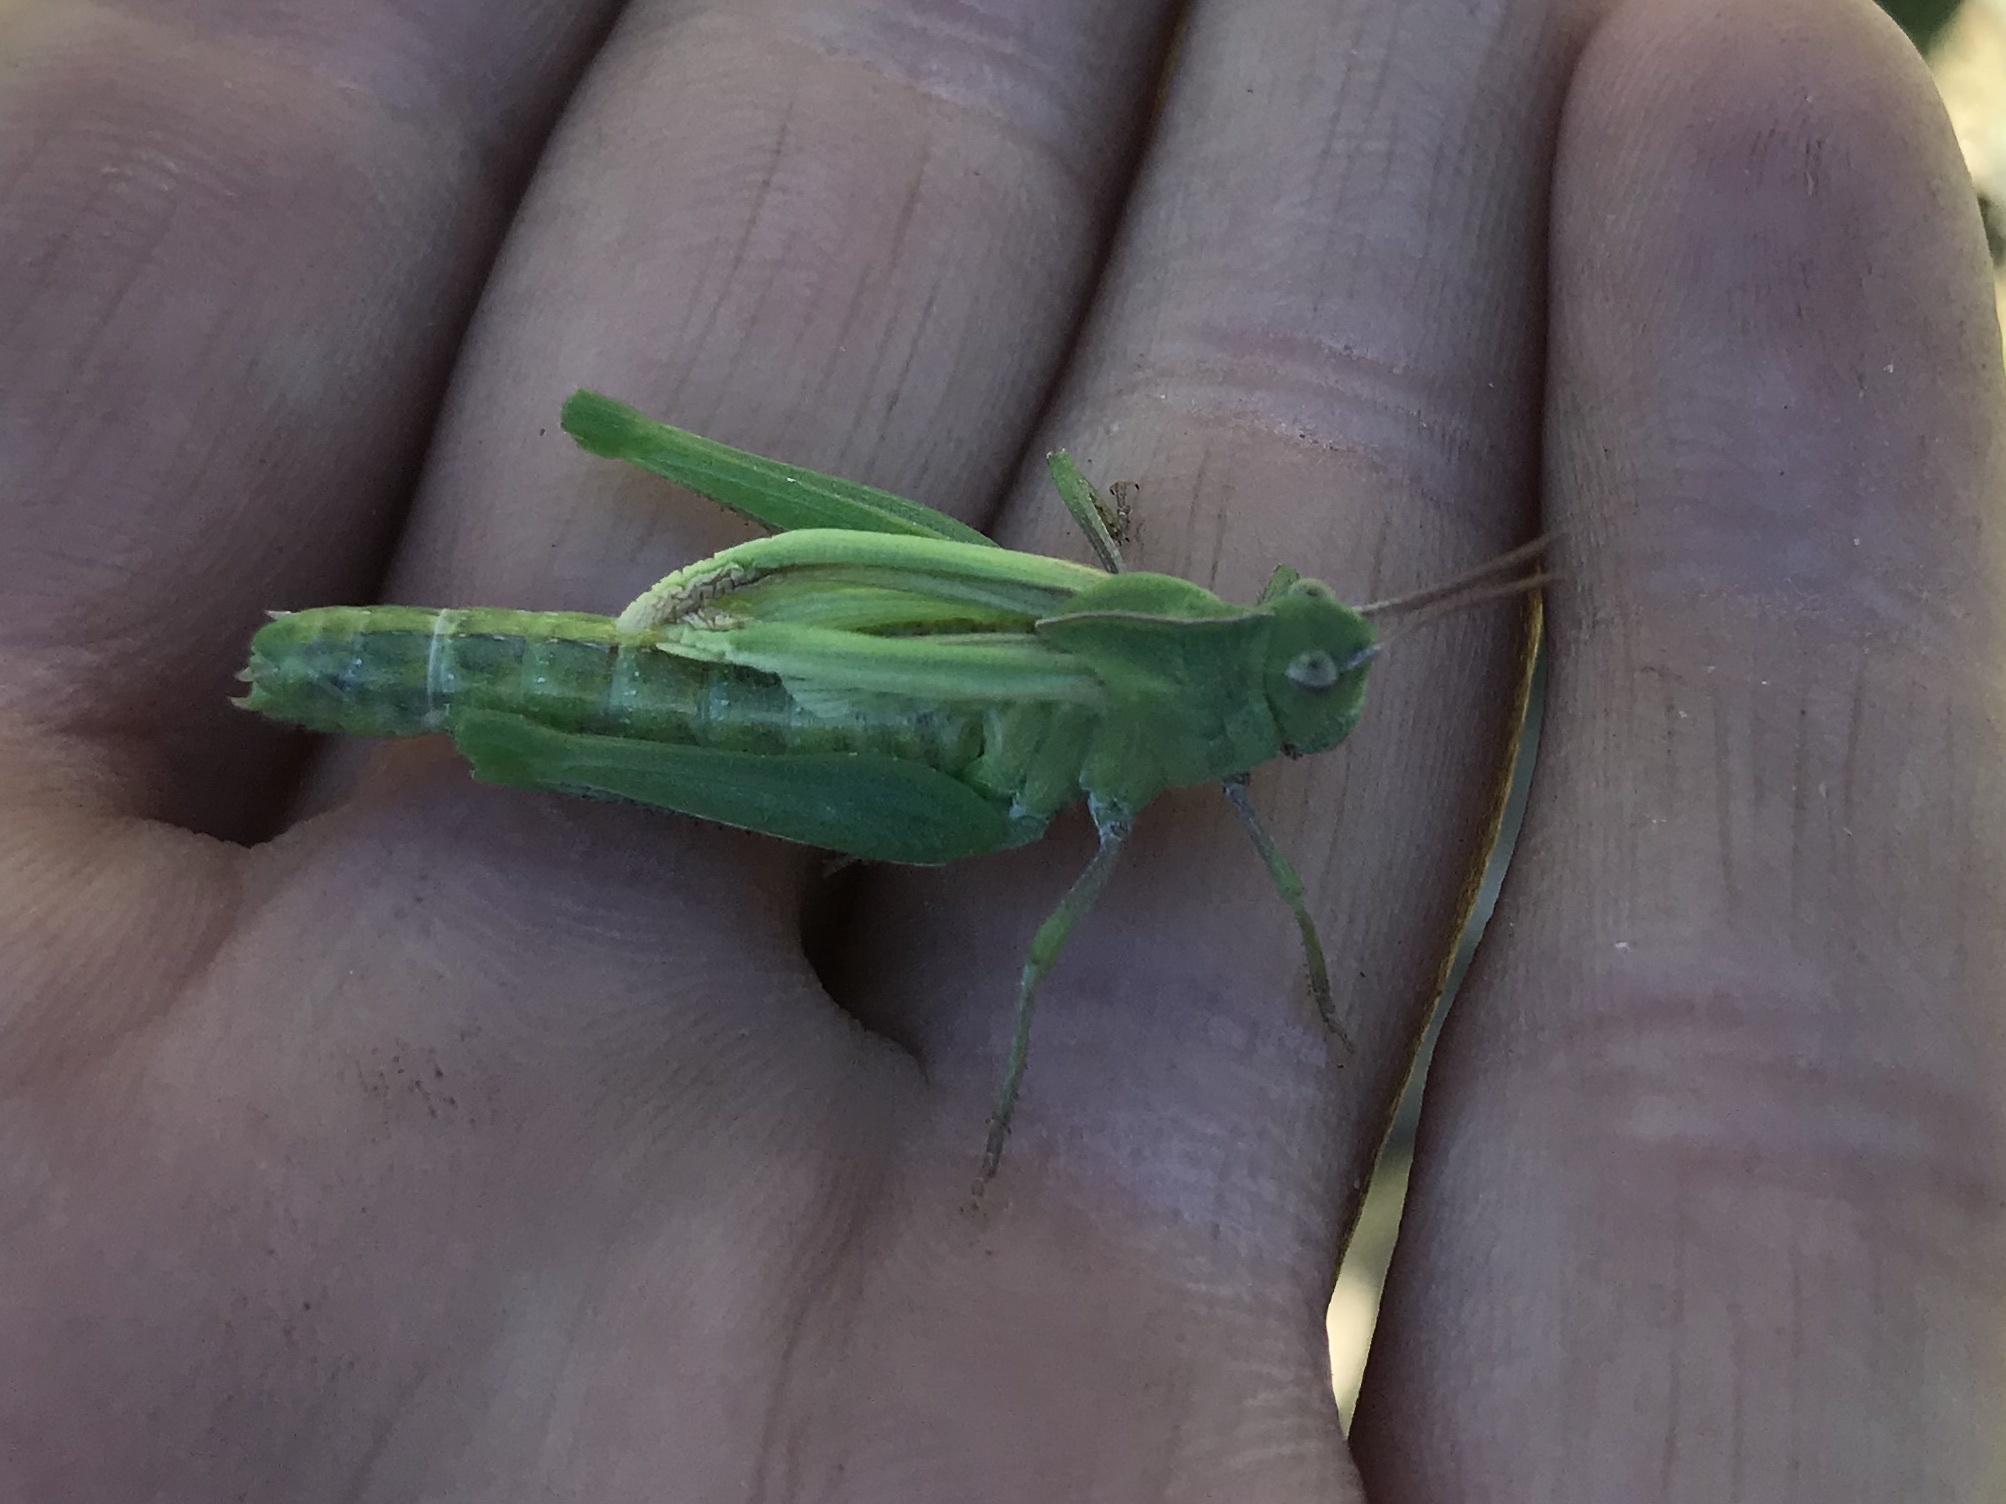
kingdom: Animalia
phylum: Arthropoda
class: Insecta
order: Orthoptera
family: Acrididae
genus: Chortophaga
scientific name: Chortophaga viridifasciata
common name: Green-striped grasshopper
